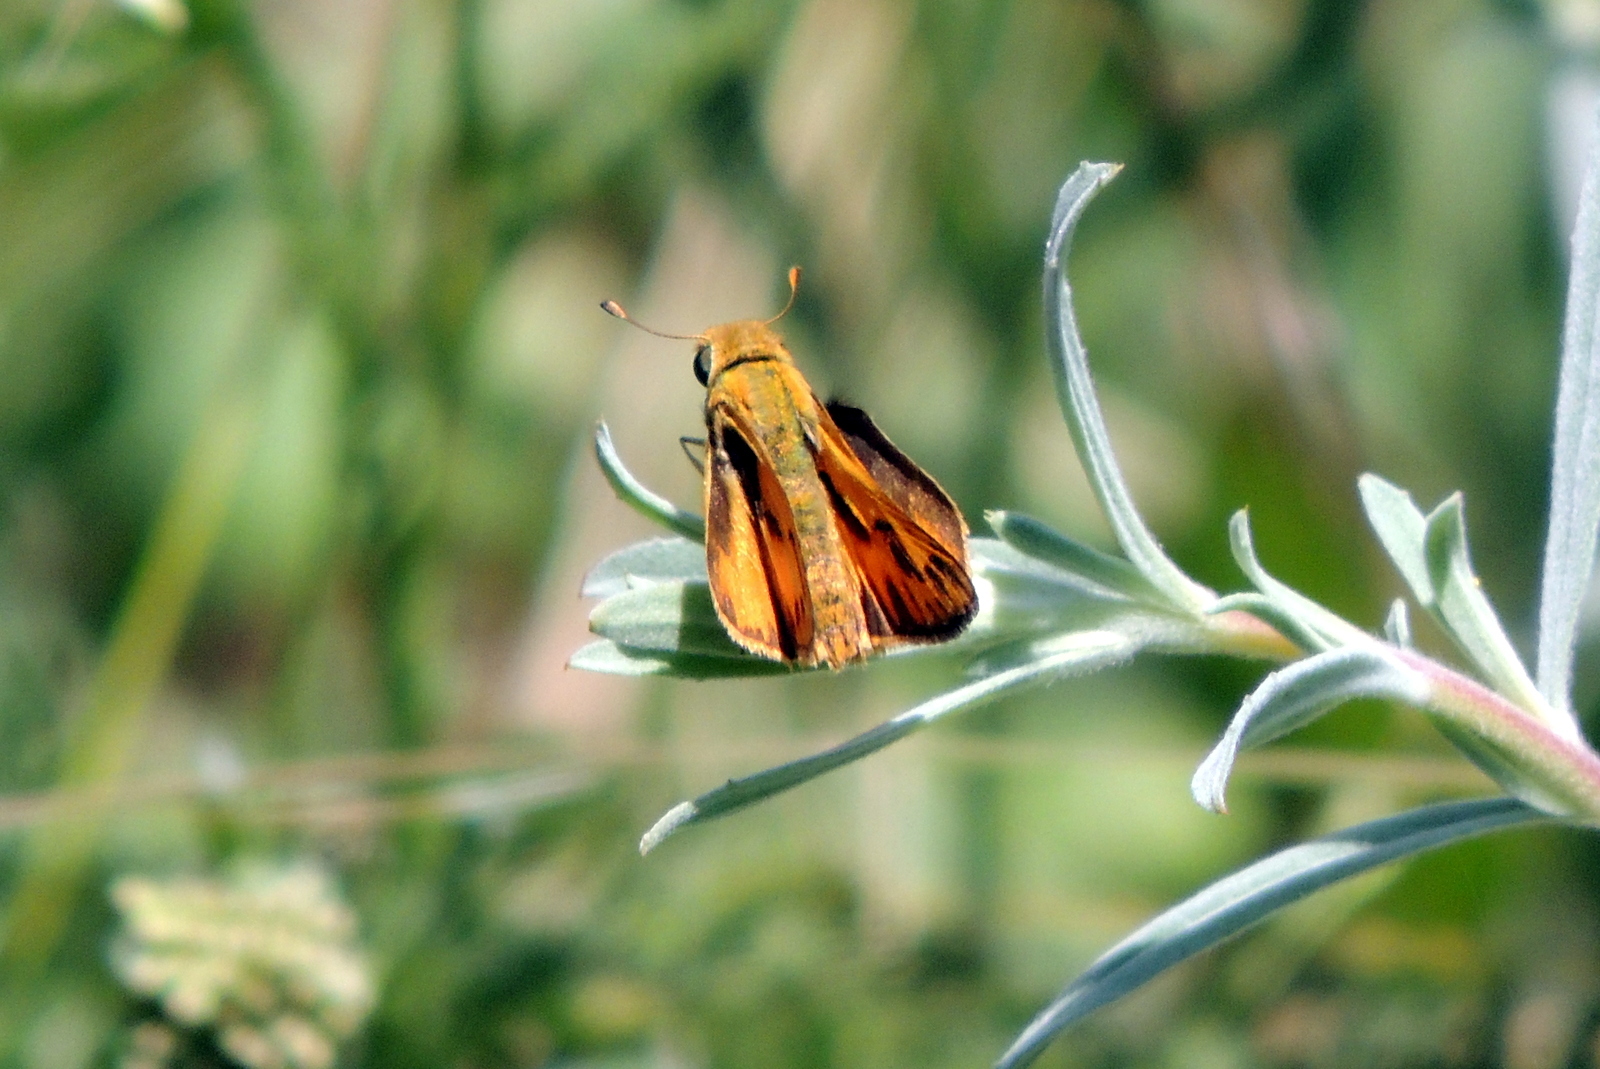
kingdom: Animalia
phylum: Arthropoda
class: Insecta
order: Lepidoptera
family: Hesperiidae
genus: Hylephila
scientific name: Hylephila phyleus
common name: Fiery skipper
